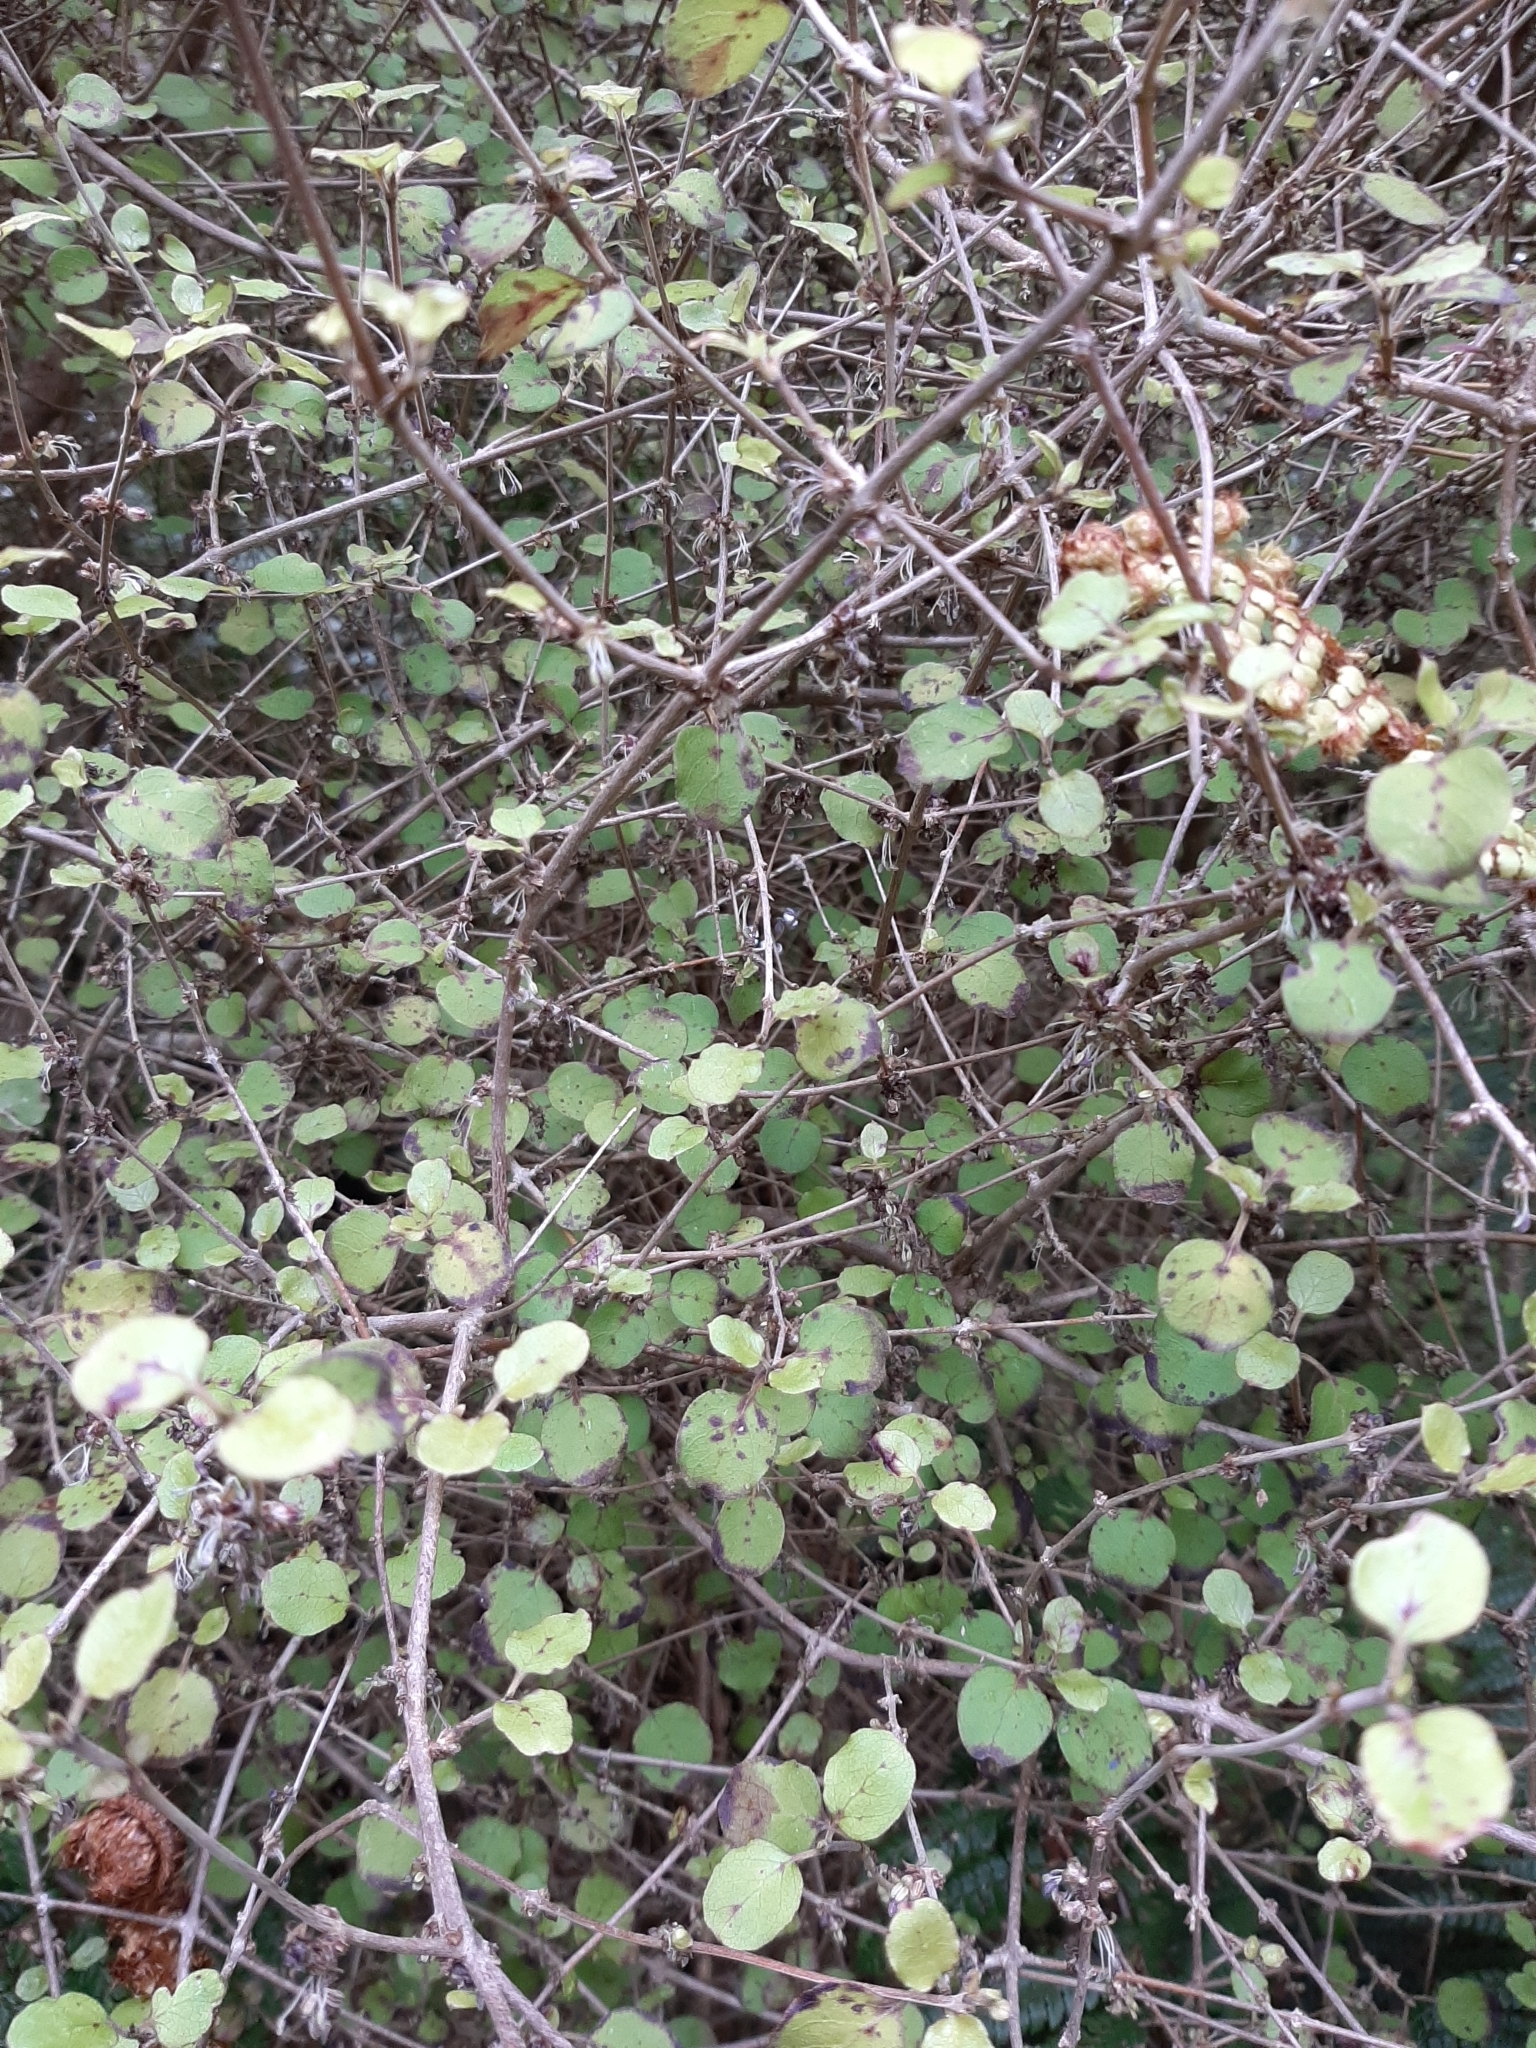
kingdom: Plantae
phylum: Tracheophyta
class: Magnoliopsida
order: Gentianales
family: Rubiaceae
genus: Coprosma
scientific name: Coprosma rotundifolia
